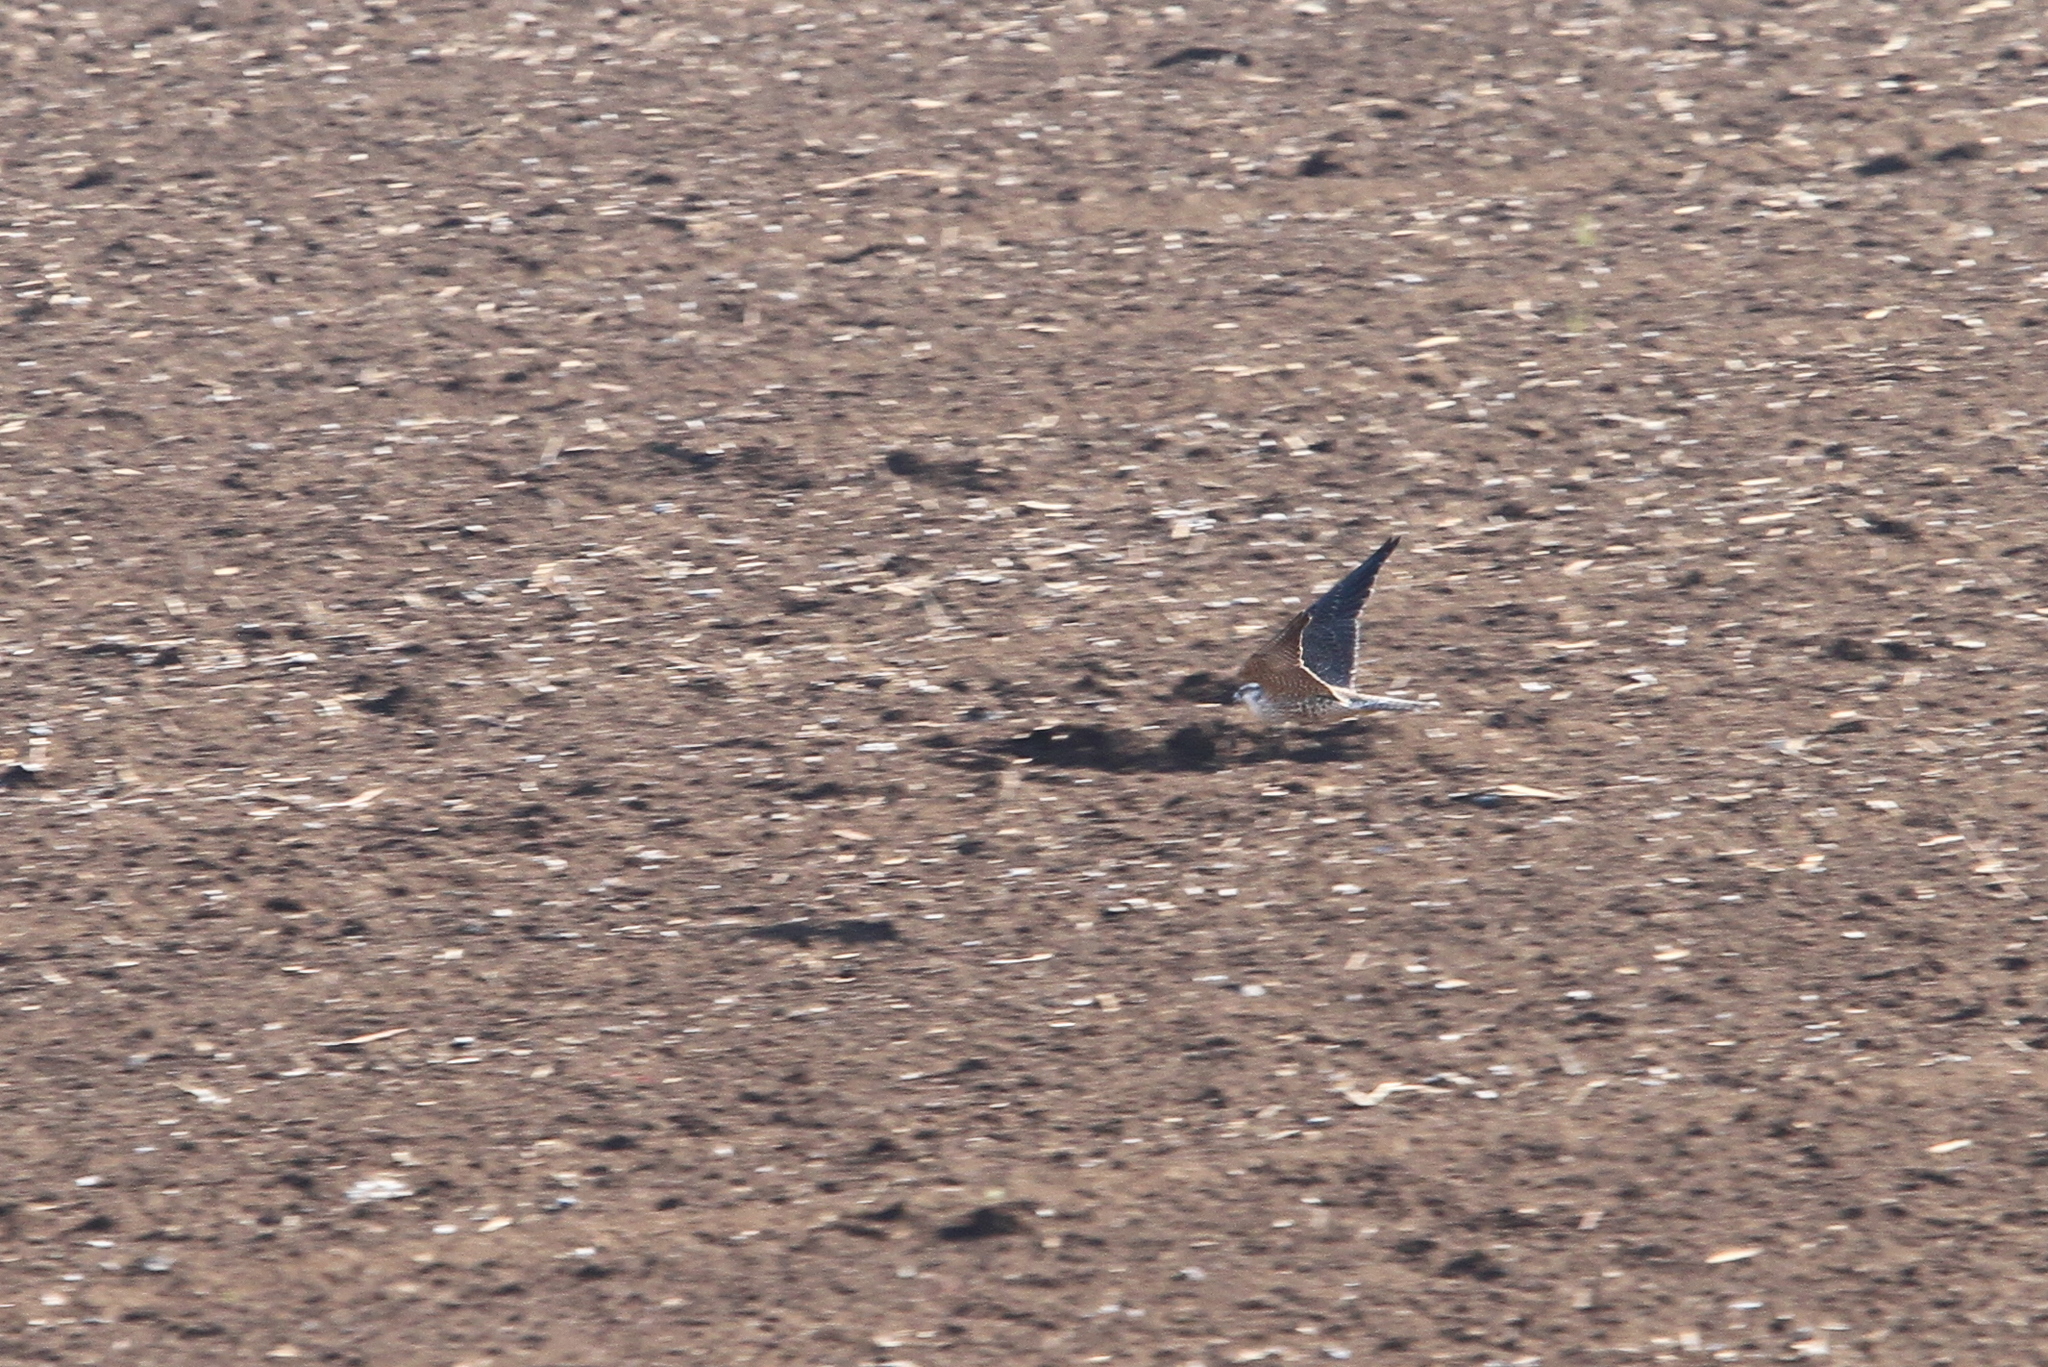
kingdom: Animalia
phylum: Chordata
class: Aves
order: Falconiformes
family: Falconidae
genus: Falco
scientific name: Falco peregrinus
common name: Peregrine falcon
